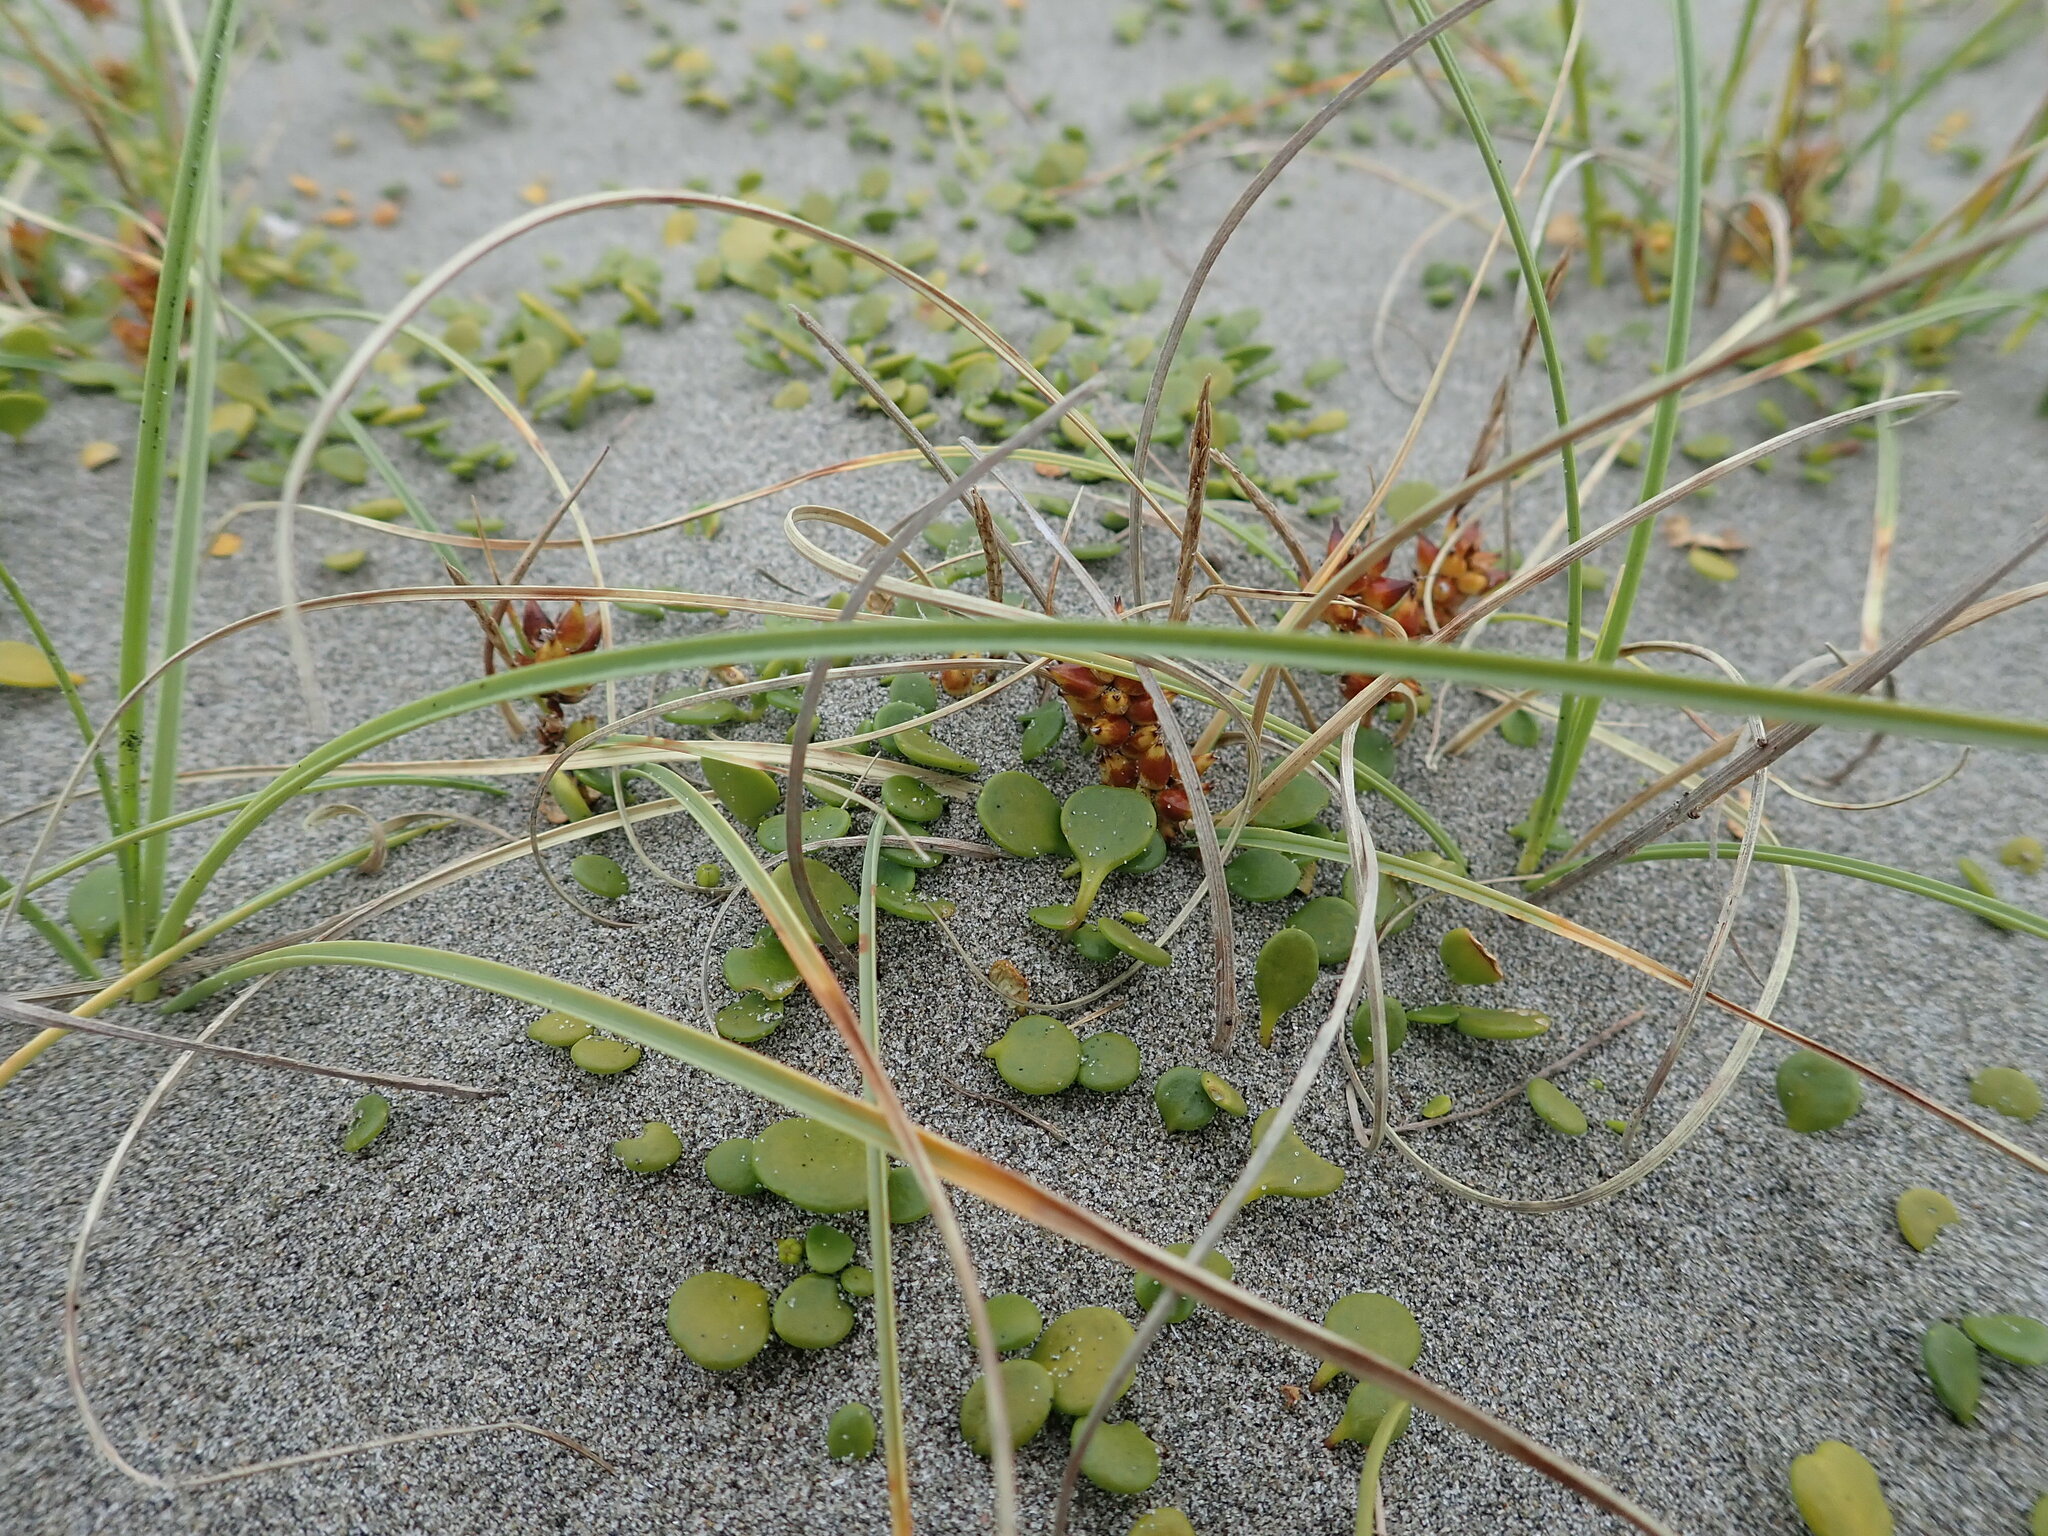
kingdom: Plantae
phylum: Tracheophyta
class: Liliopsida
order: Poales
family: Cyperaceae
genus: Carex
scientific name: Carex pumila
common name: Dwarf sedge
